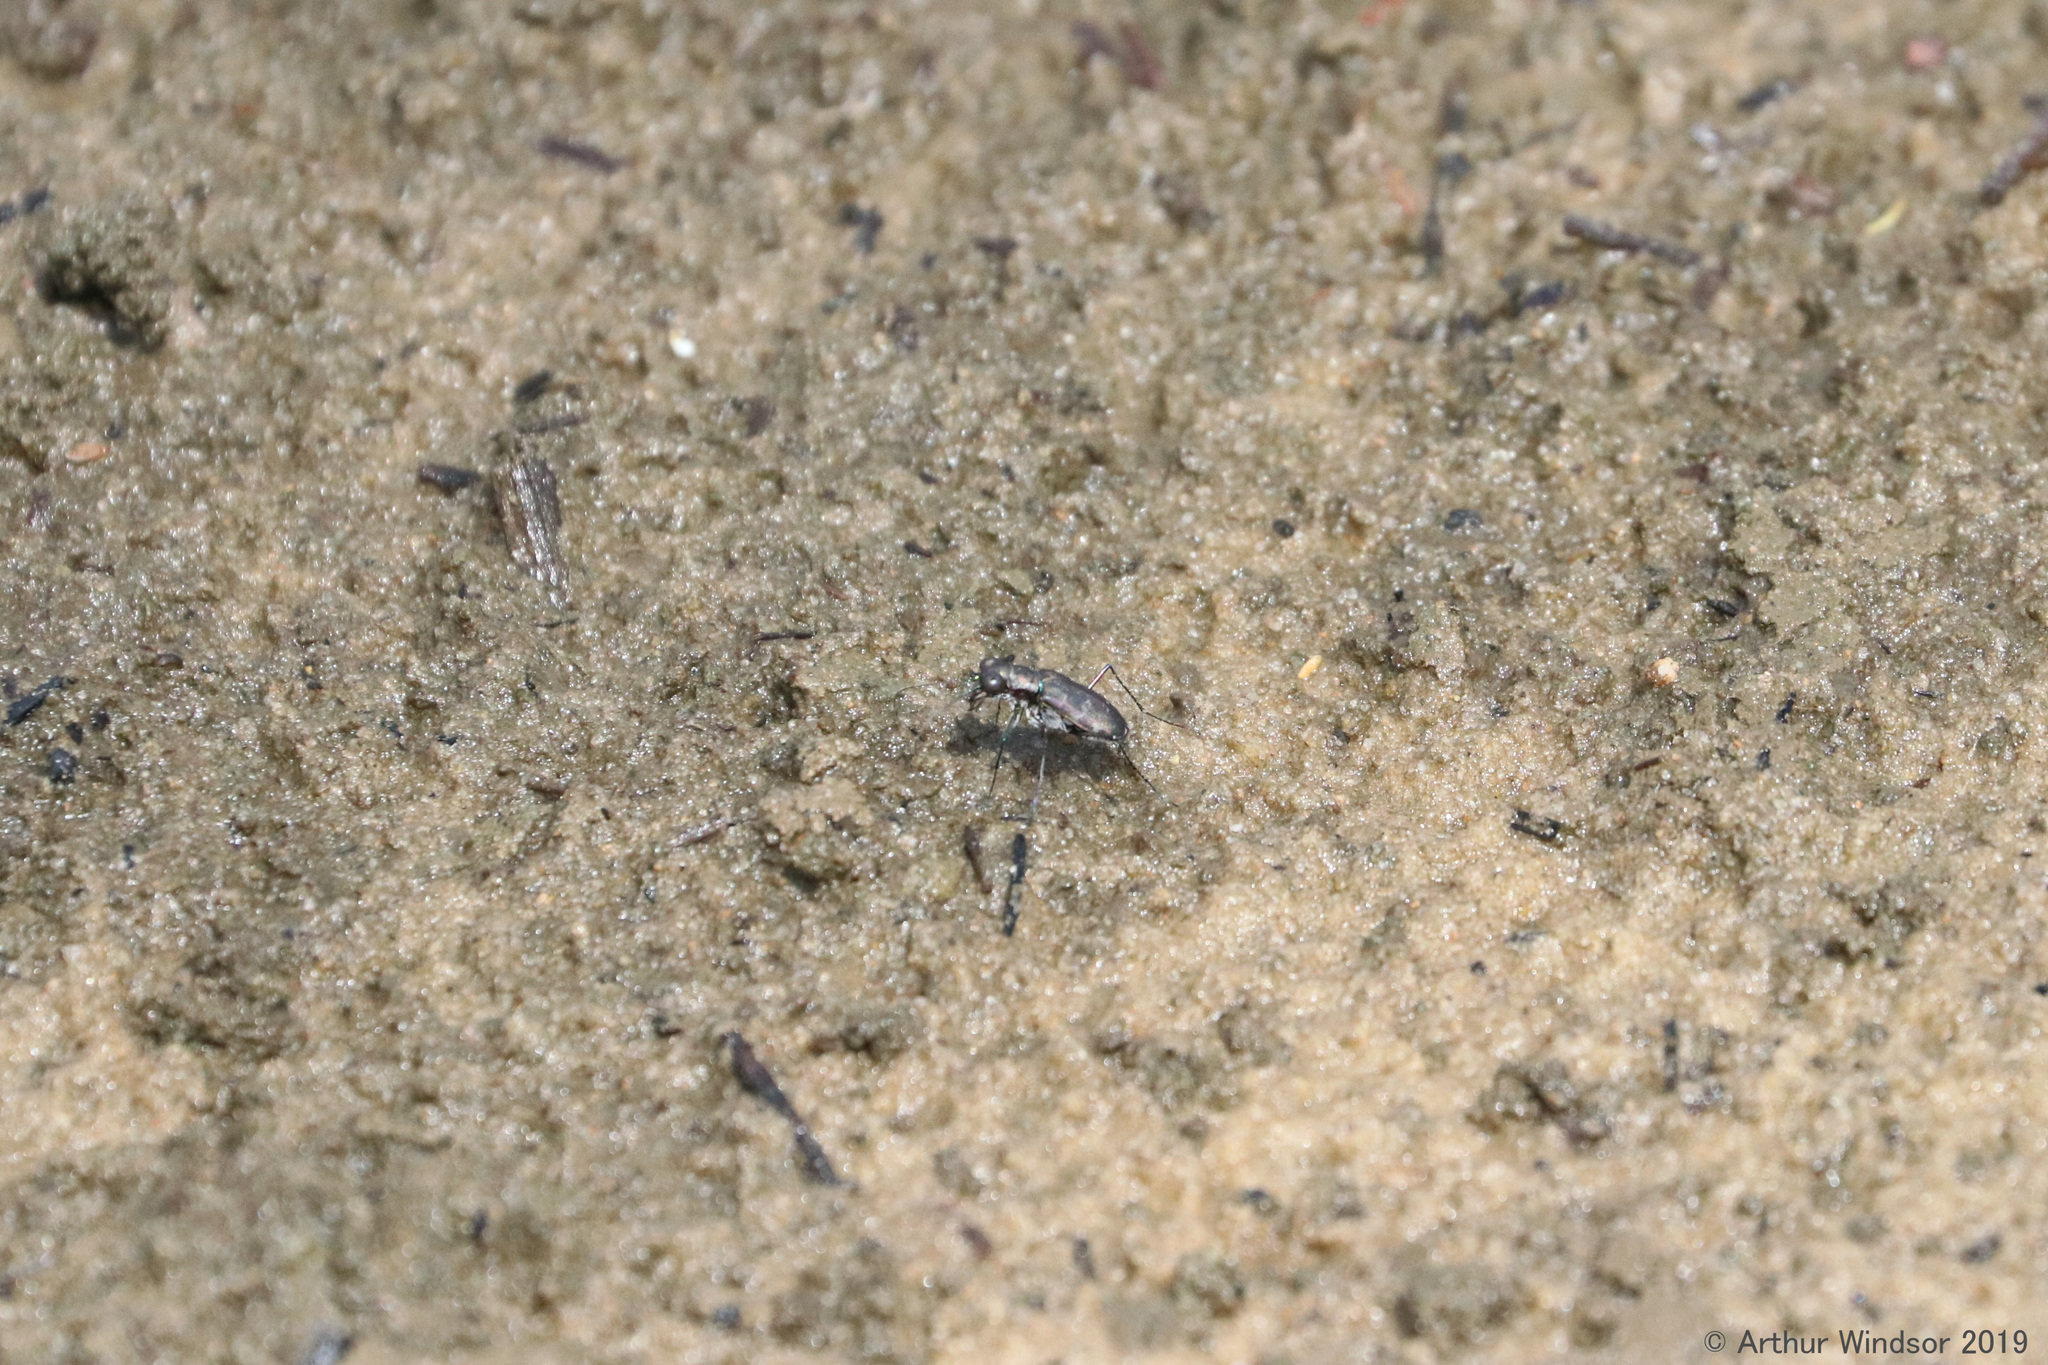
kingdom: Animalia
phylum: Arthropoda
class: Insecta
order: Coleoptera
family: Carabidae
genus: Cicindela
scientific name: Cicindela trifasciata
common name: Mudflat tiger beetle
